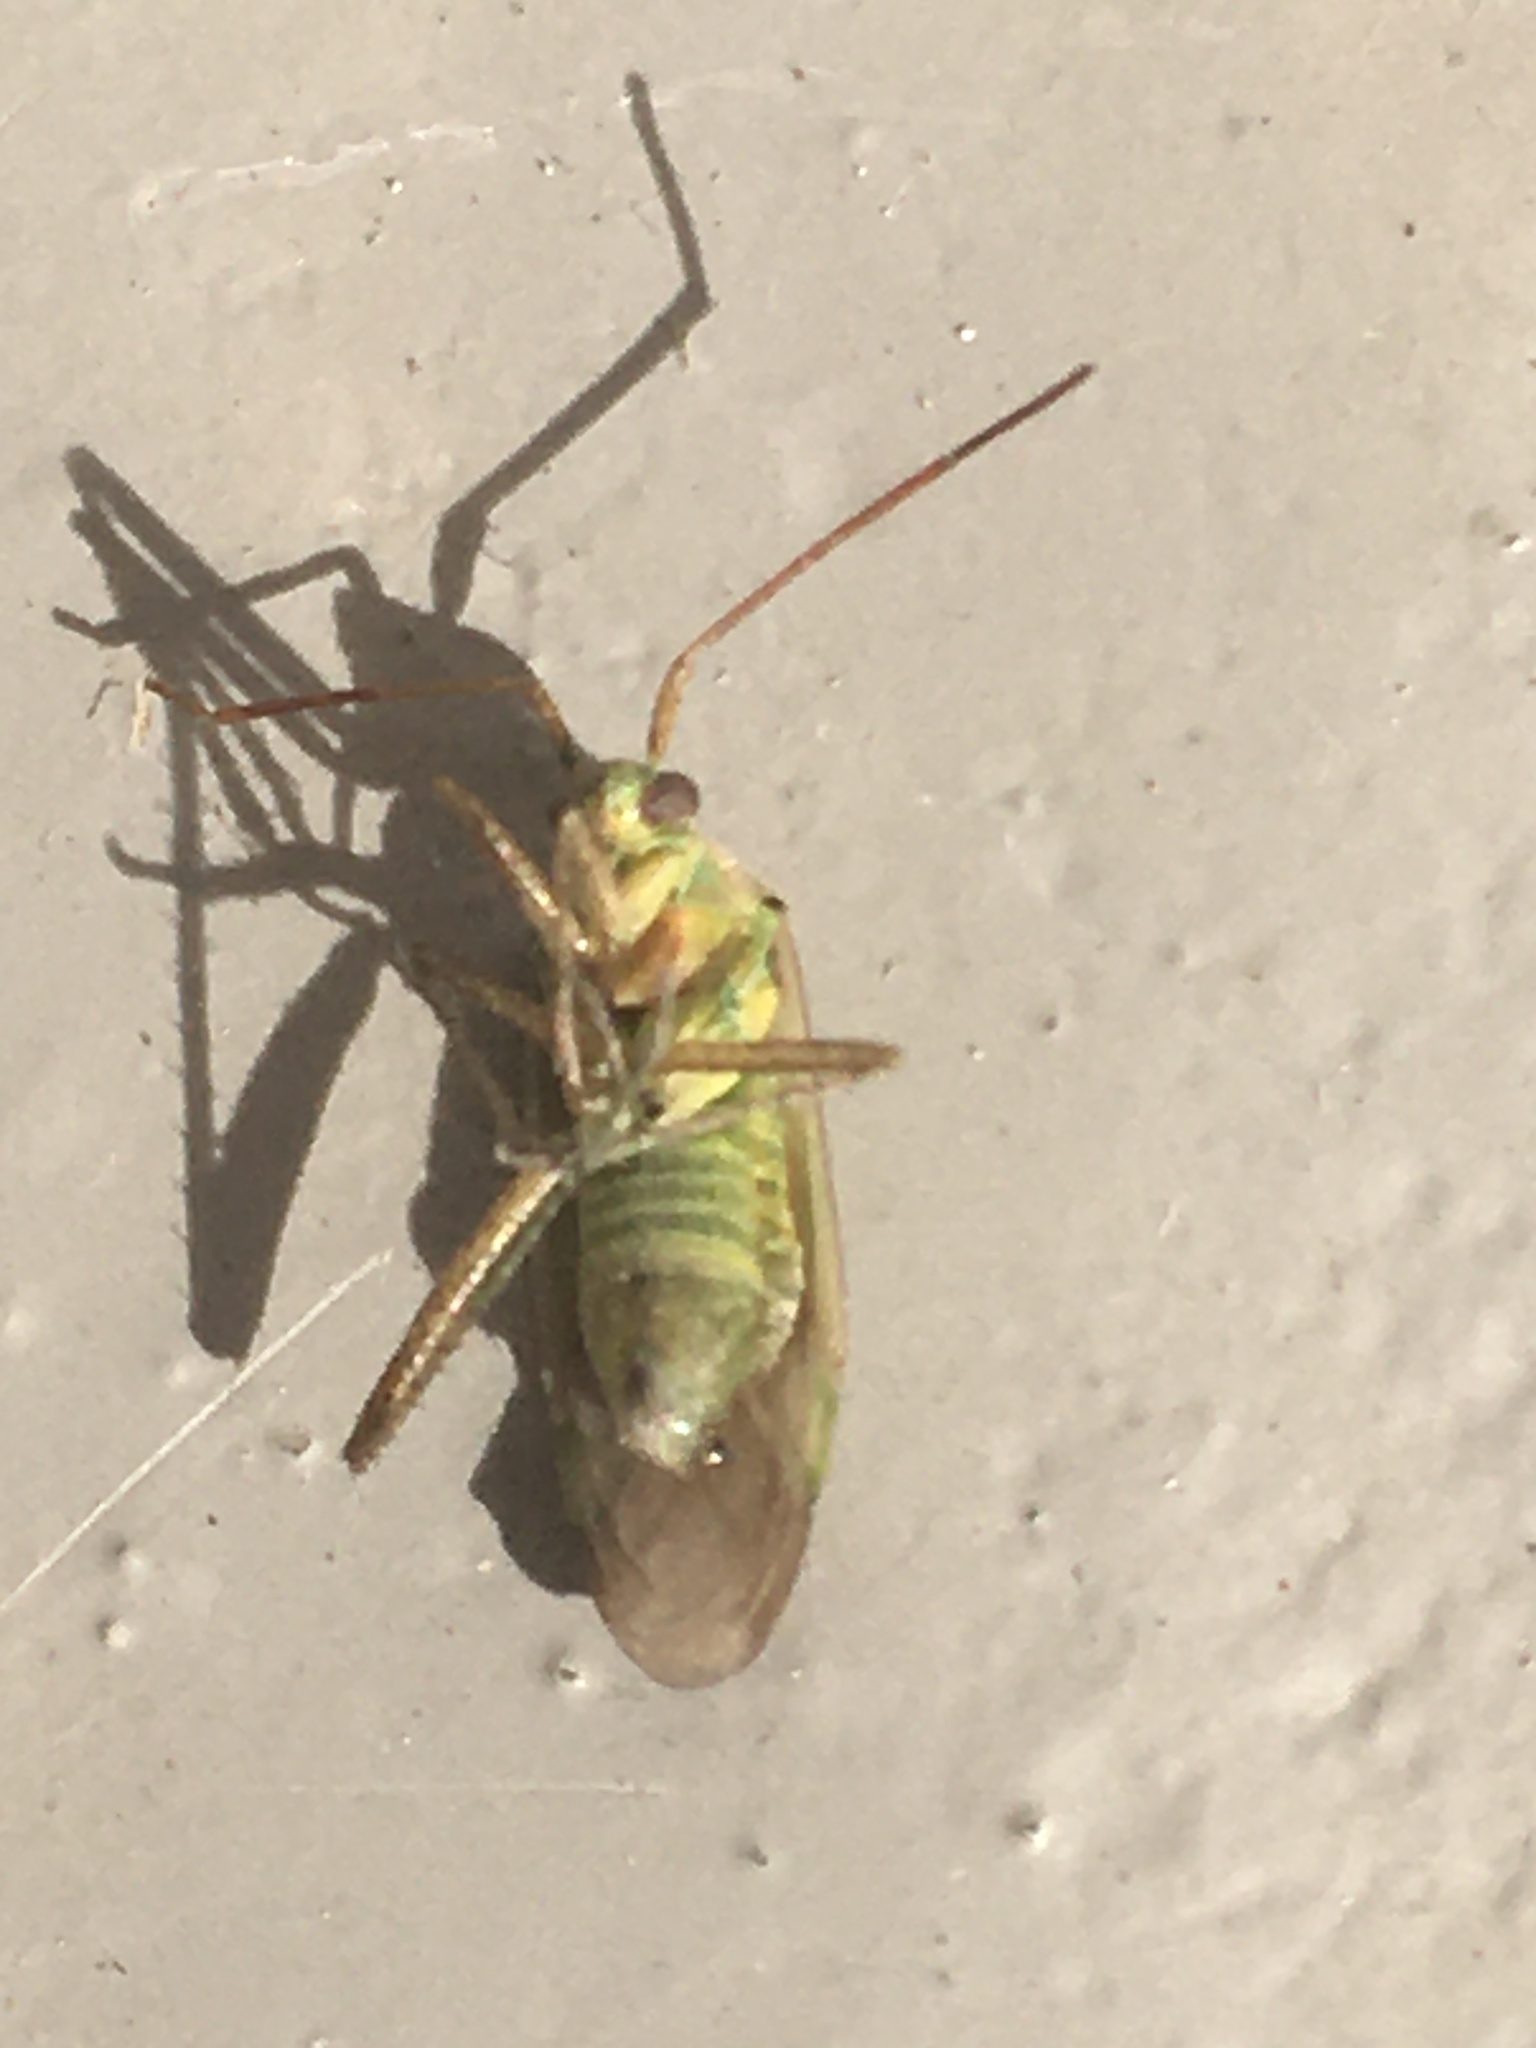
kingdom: Animalia
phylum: Arthropoda
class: Insecta
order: Hemiptera
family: Miridae
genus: Adelphocoris
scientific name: Adelphocoris lineolatus
